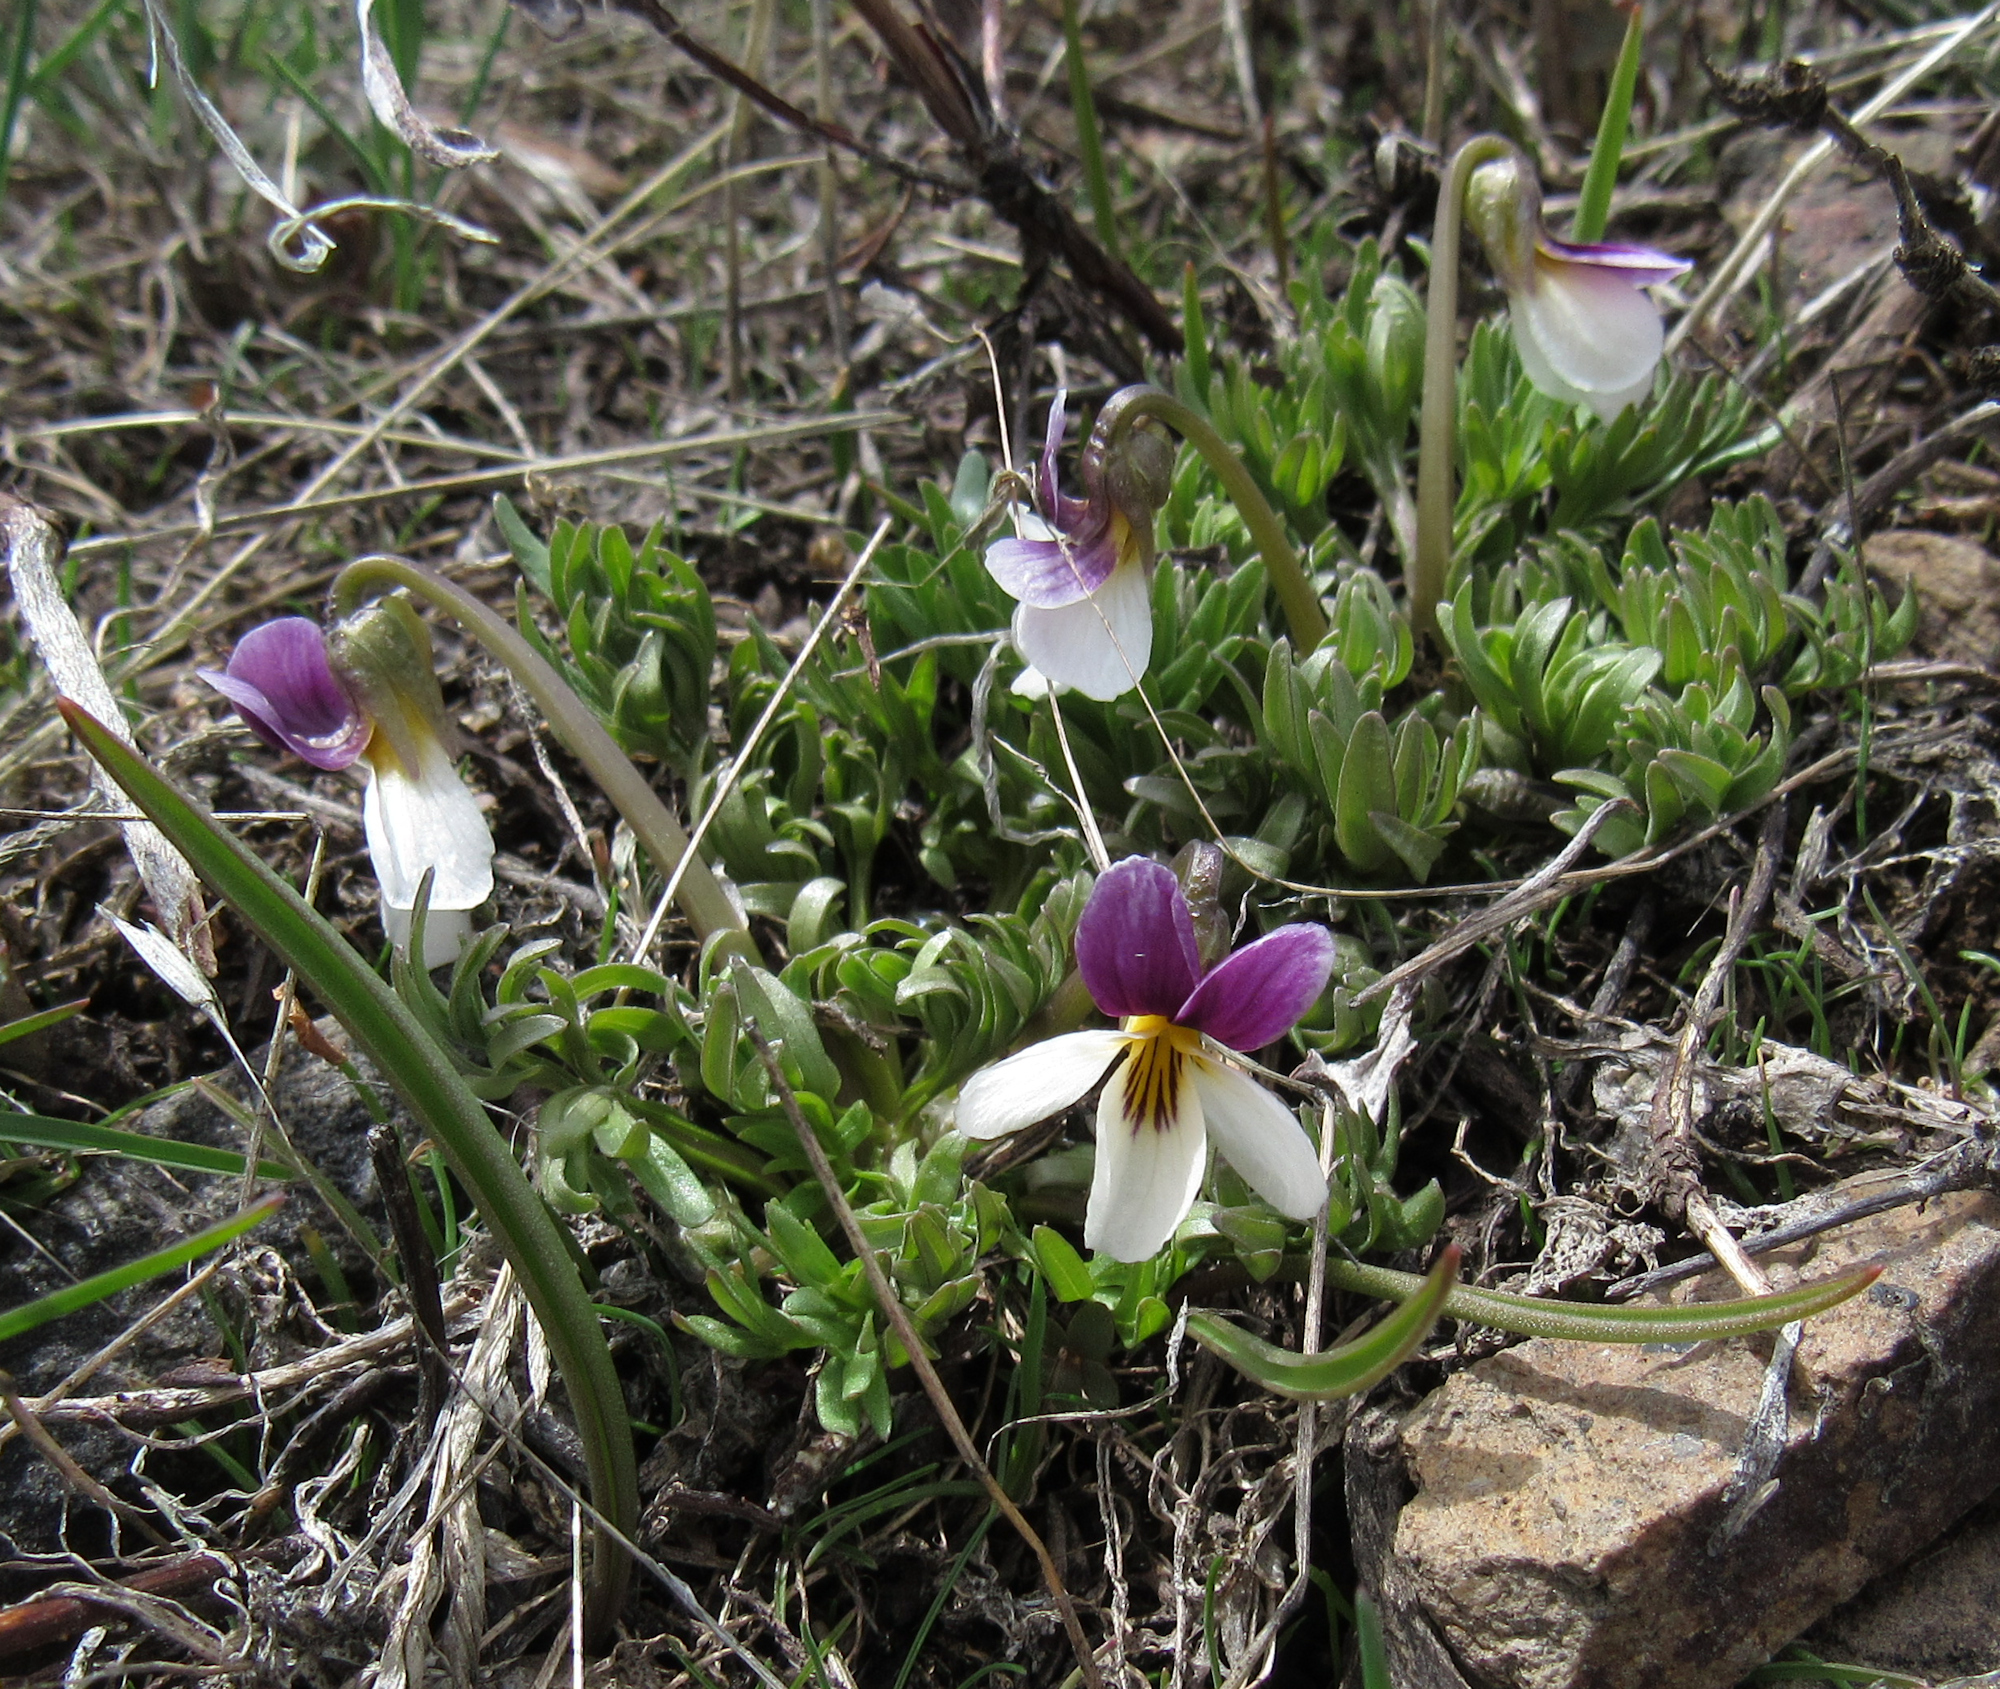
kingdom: Plantae
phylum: Tracheophyta
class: Magnoliopsida
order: Malpighiales
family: Violaceae
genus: Viola
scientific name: Viola beckwithii
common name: Beckwith's violet
